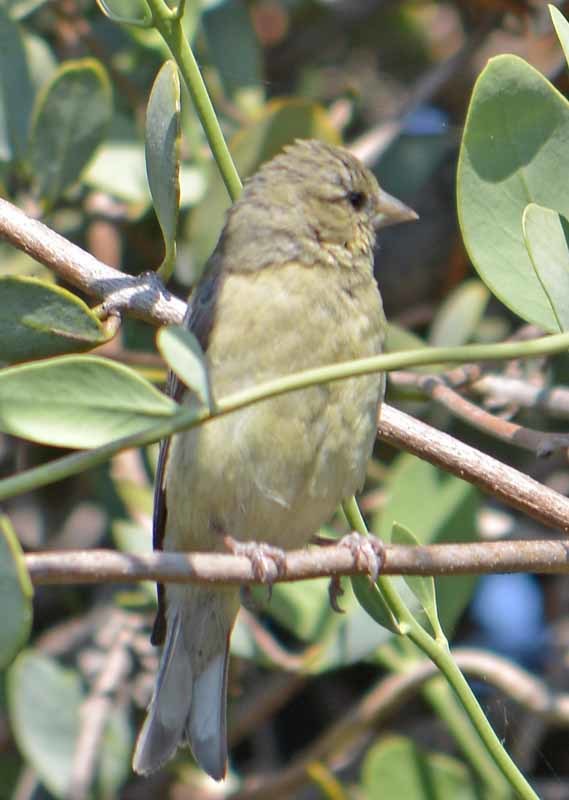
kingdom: Animalia
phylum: Chordata
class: Aves
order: Passeriformes
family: Fringillidae
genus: Spinus
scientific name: Spinus psaltria
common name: Lesser goldfinch
